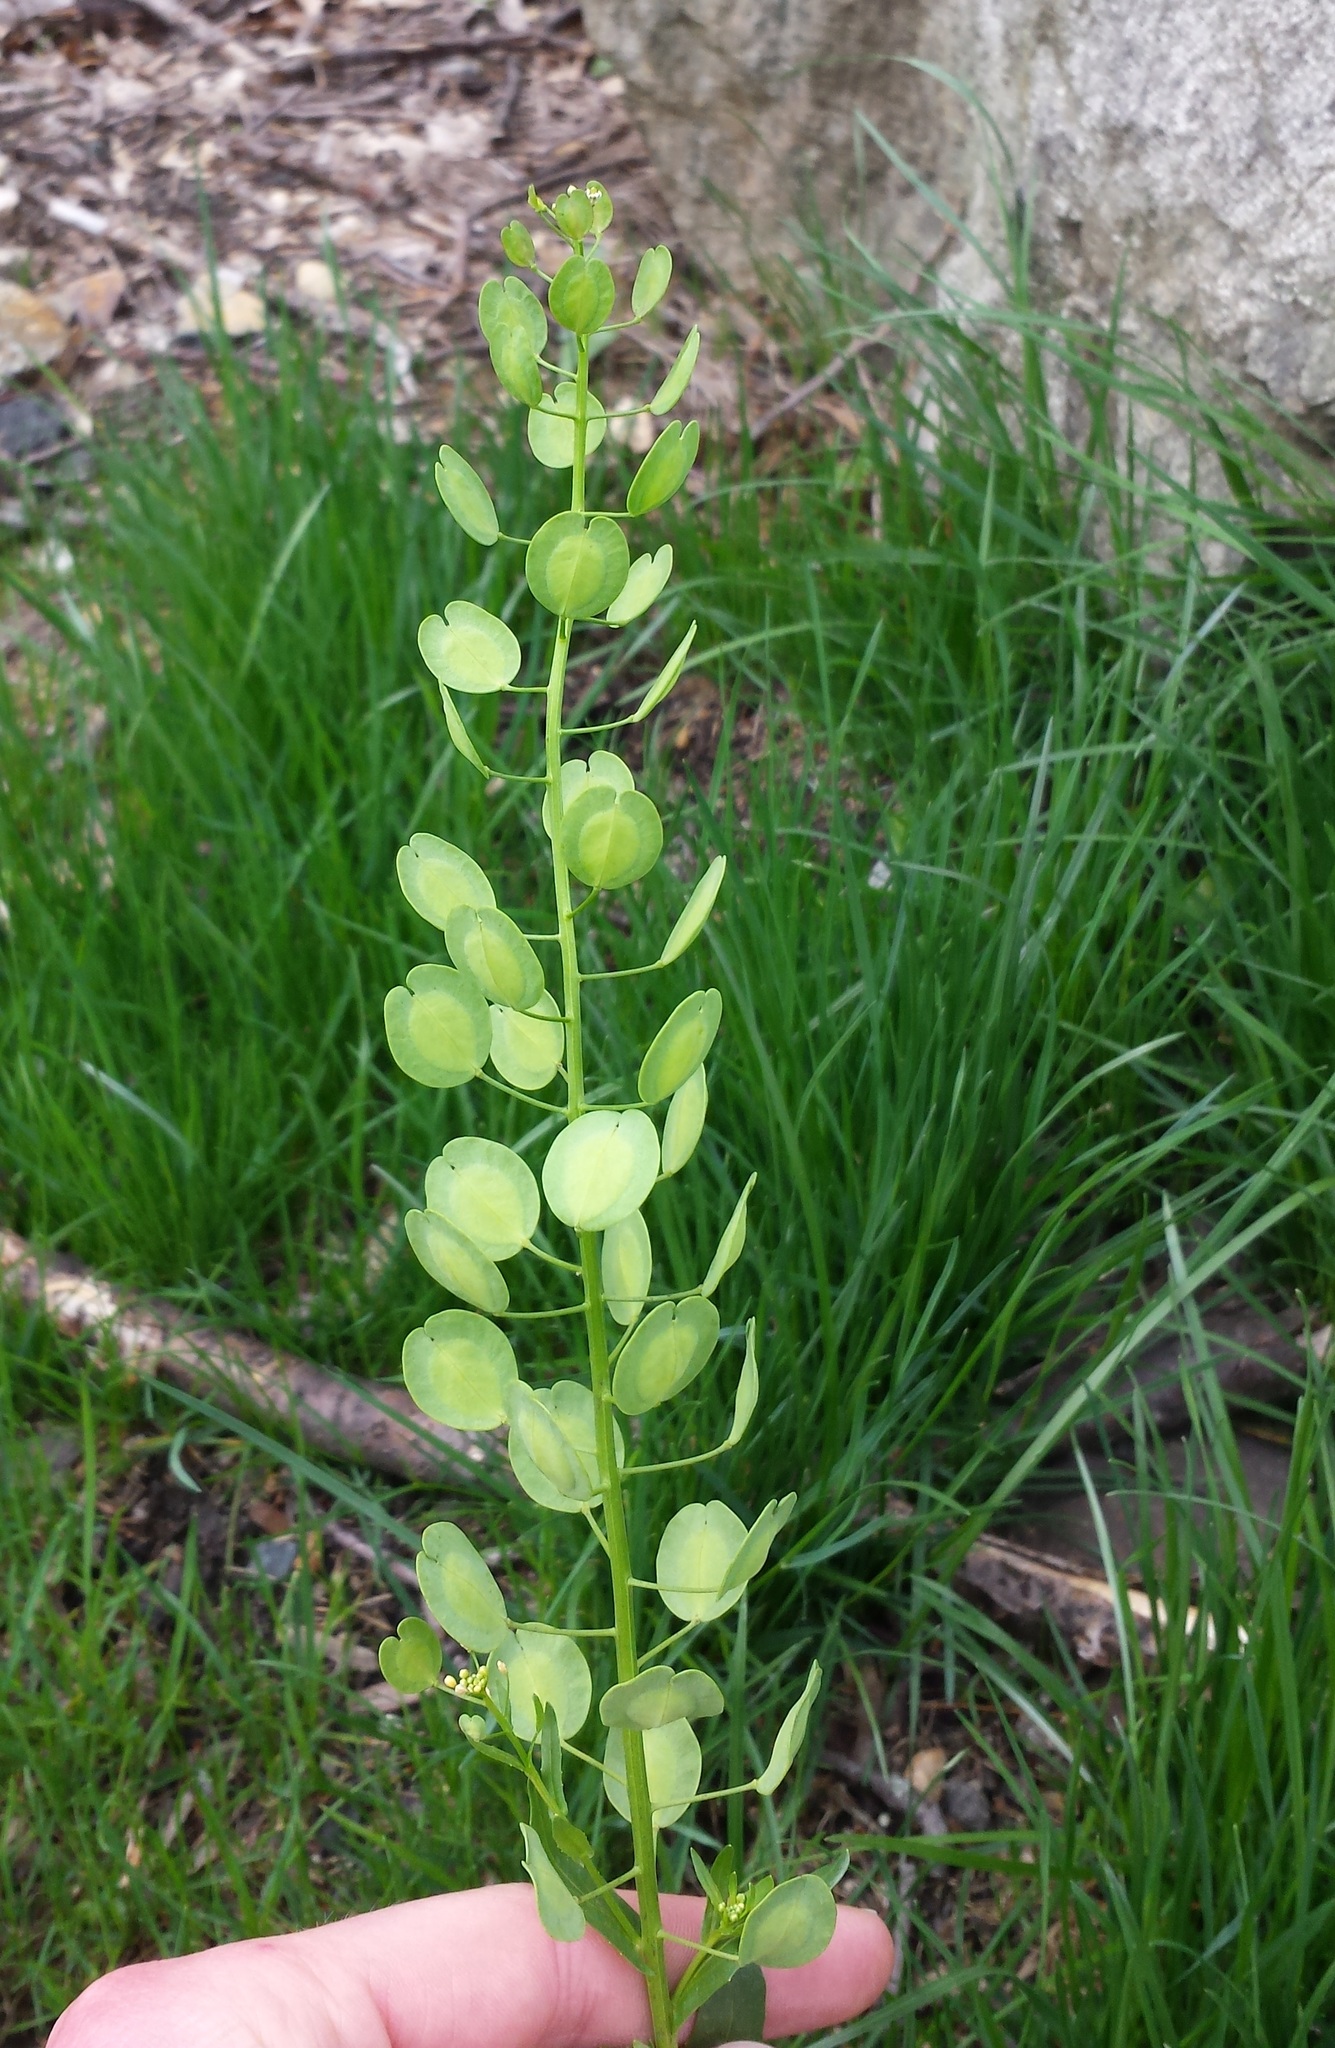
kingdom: Plantae
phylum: Tracheophyta
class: Magnoliopsida
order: Brassicales
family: Brassicaceae
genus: Thlaspi
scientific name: Thlaspi arvense
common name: Field pennycress
